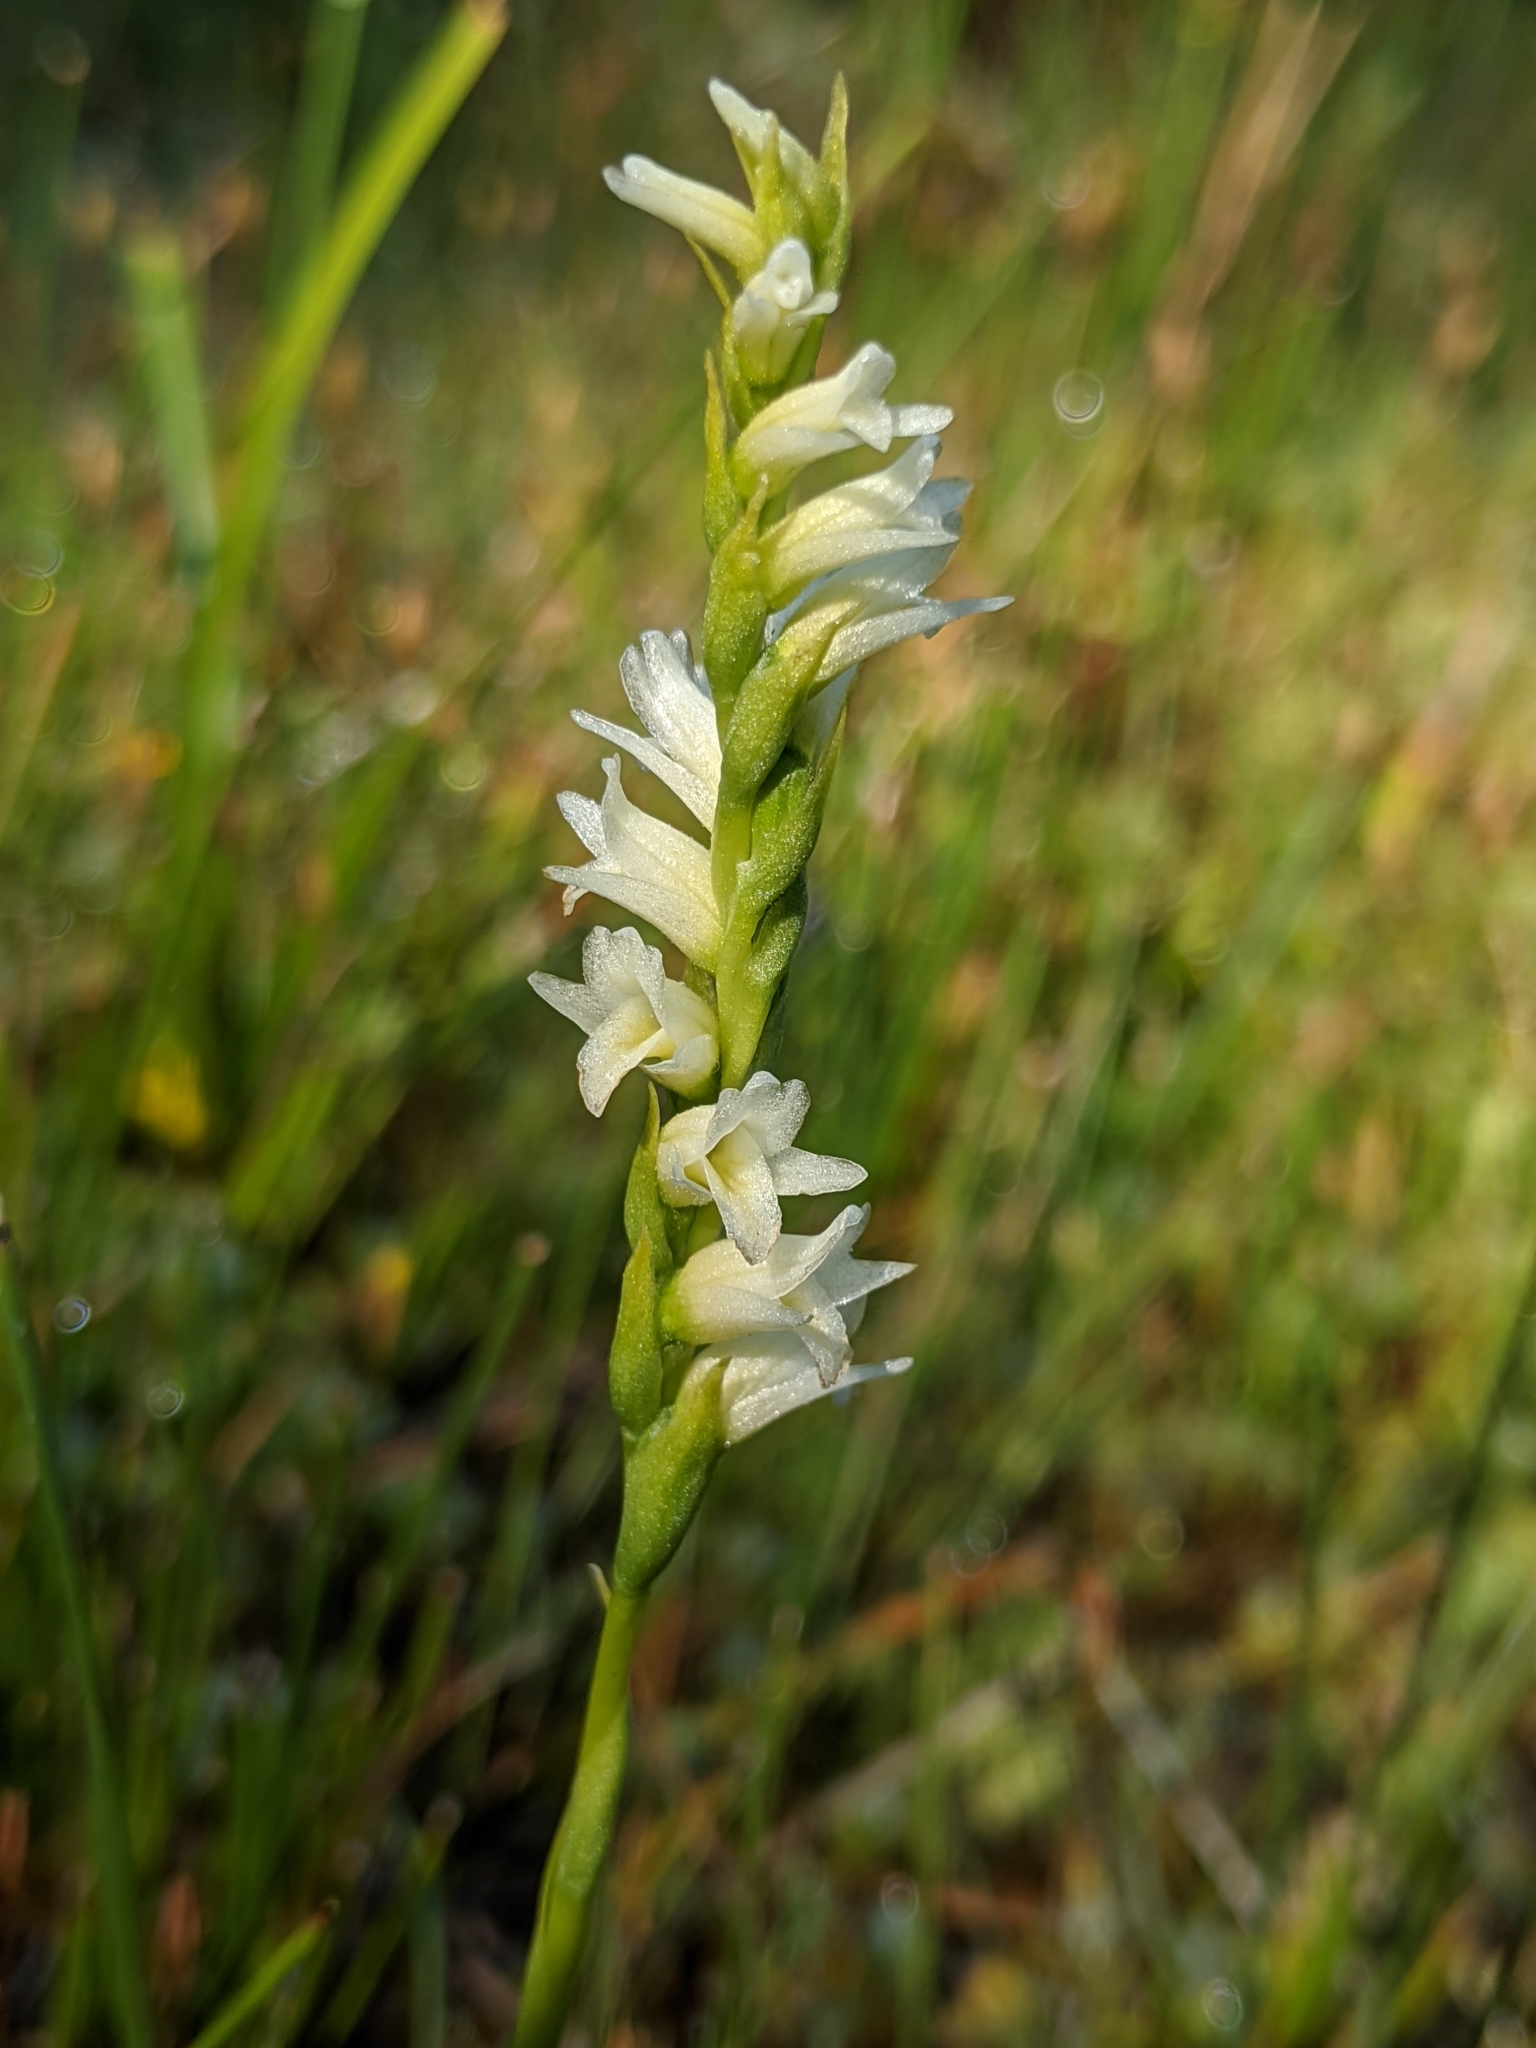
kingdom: Plantae
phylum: Tracheophyta
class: Liliopsida
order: Asparagales
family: Orchidaceae
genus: Spiranthes
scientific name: Spiranthes perexilis
